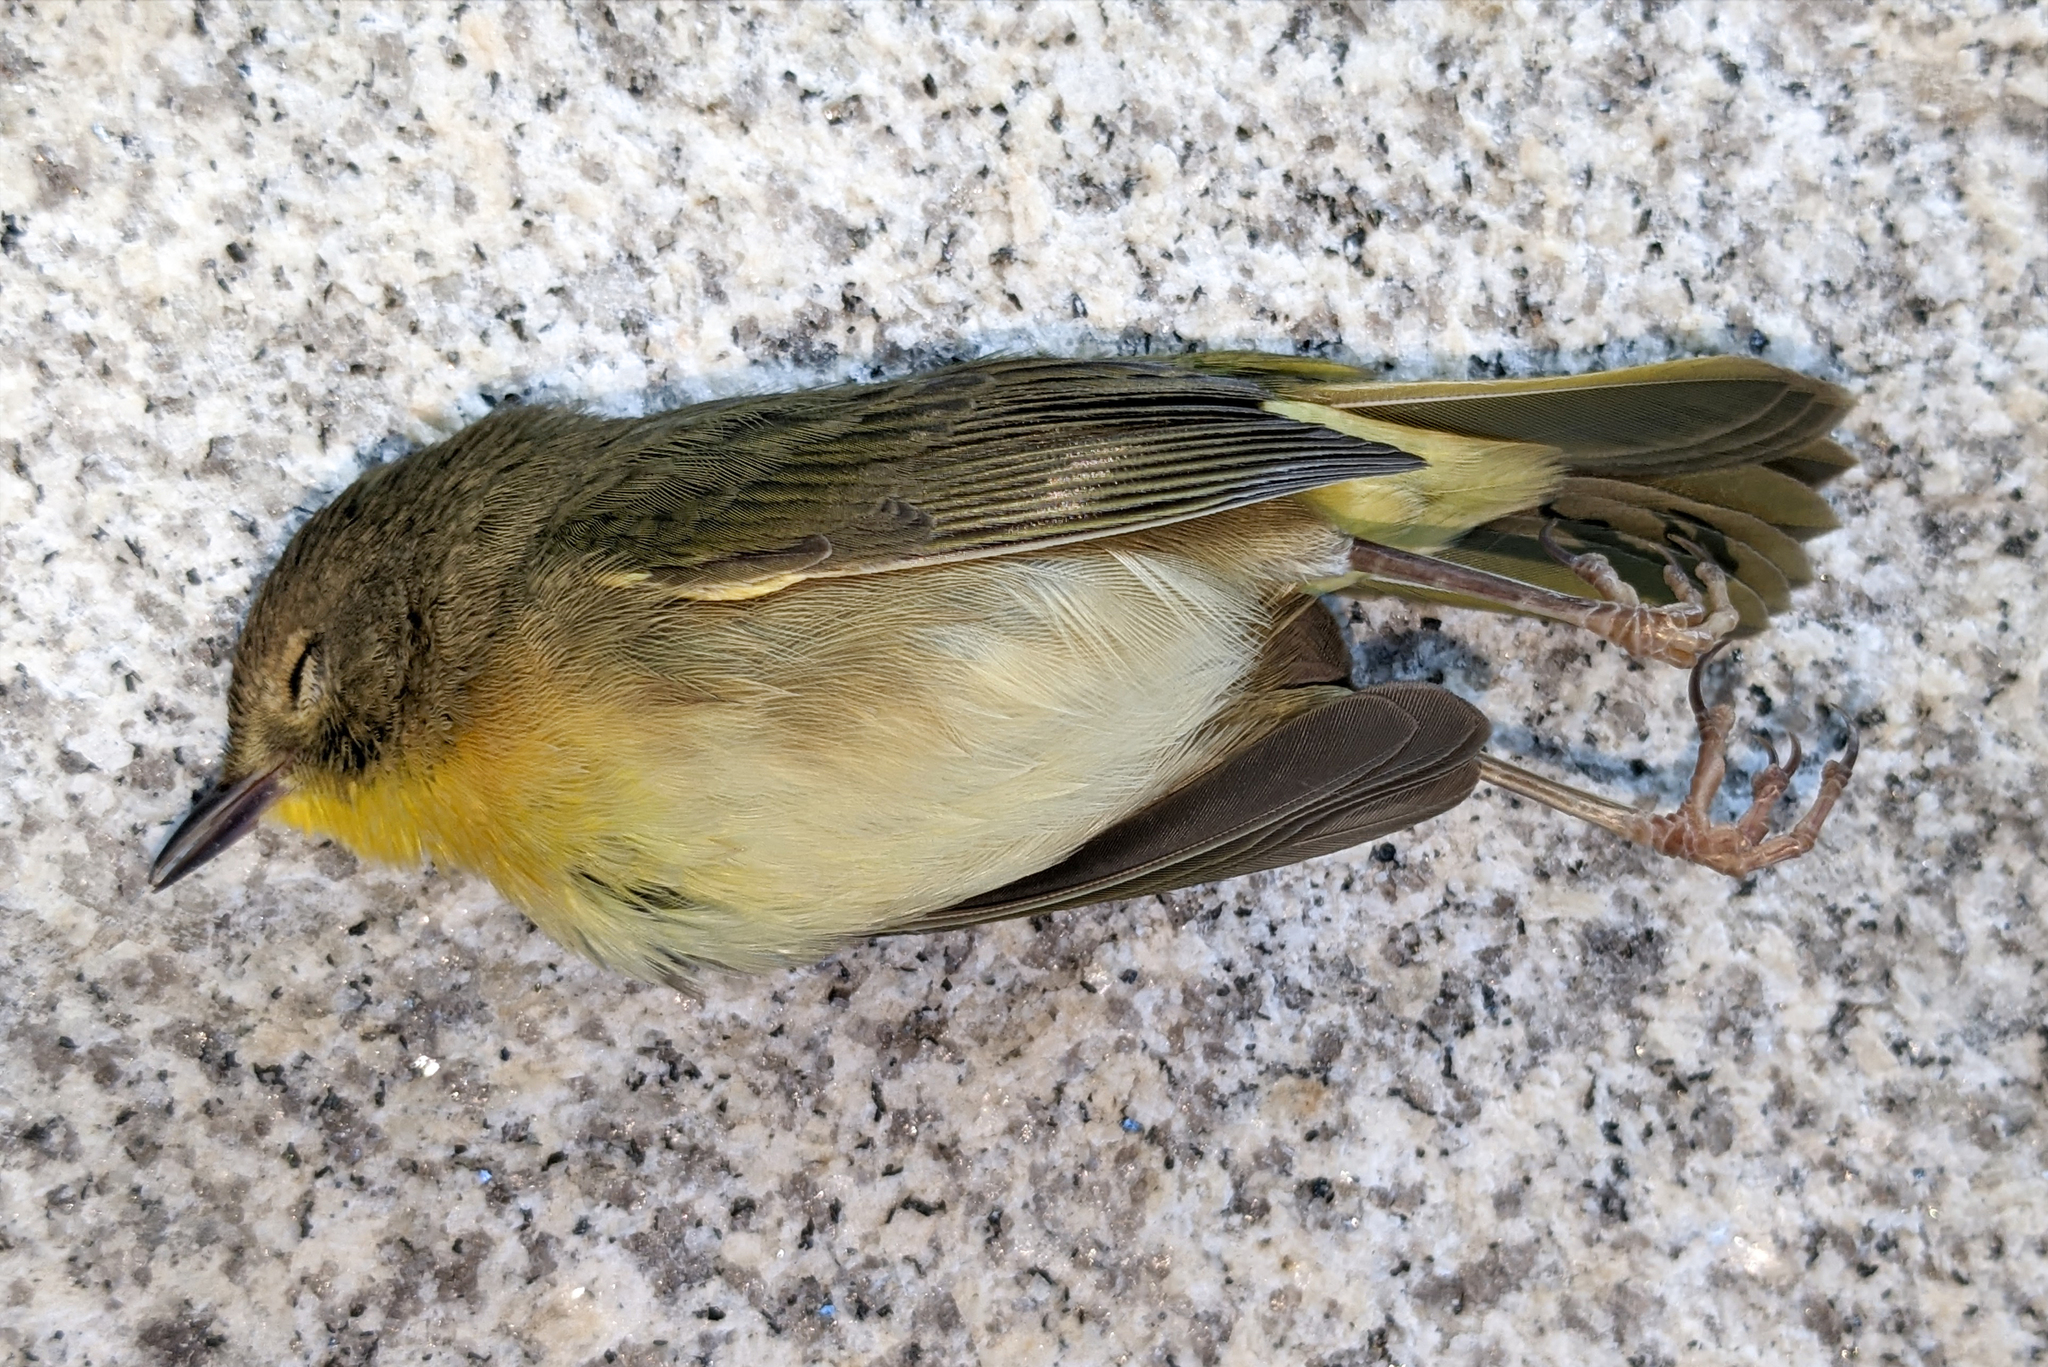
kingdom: Animalia
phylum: Chordata
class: Aves
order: Passeriformes
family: Parulidae
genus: Geothlypis
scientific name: Geothlypis trichas
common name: Common yellowthroat
